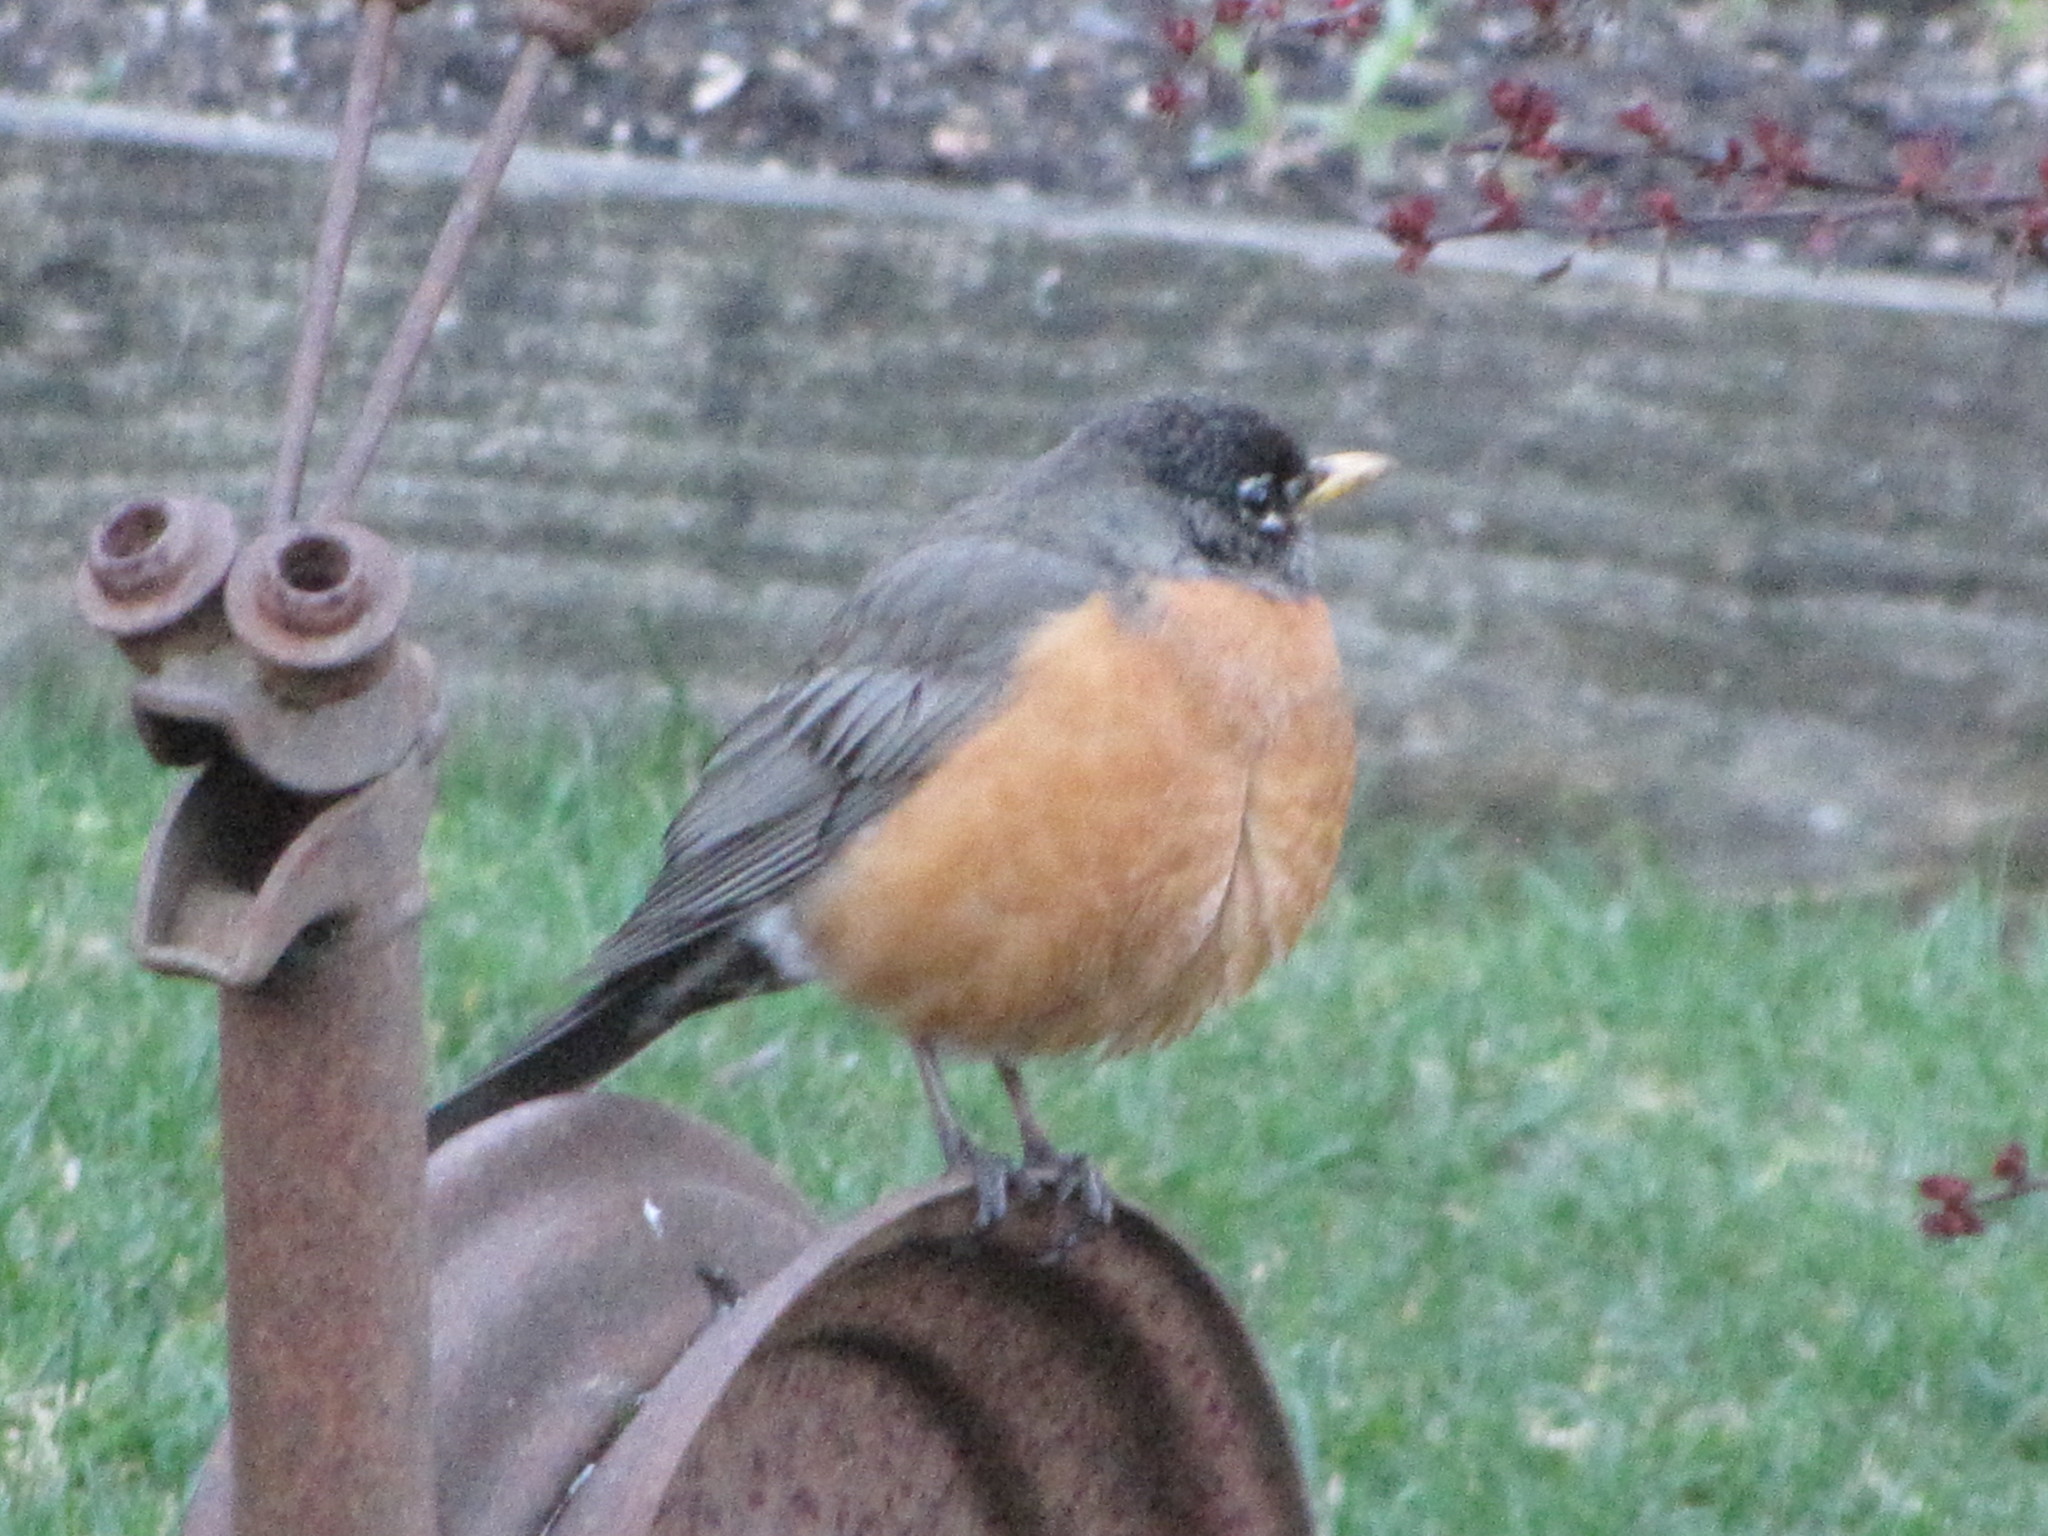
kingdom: Animalia
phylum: Chordata
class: Aves
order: Passeriformes
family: Turdidae
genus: Turdus
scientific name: Turdus migratorius
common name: American robin
